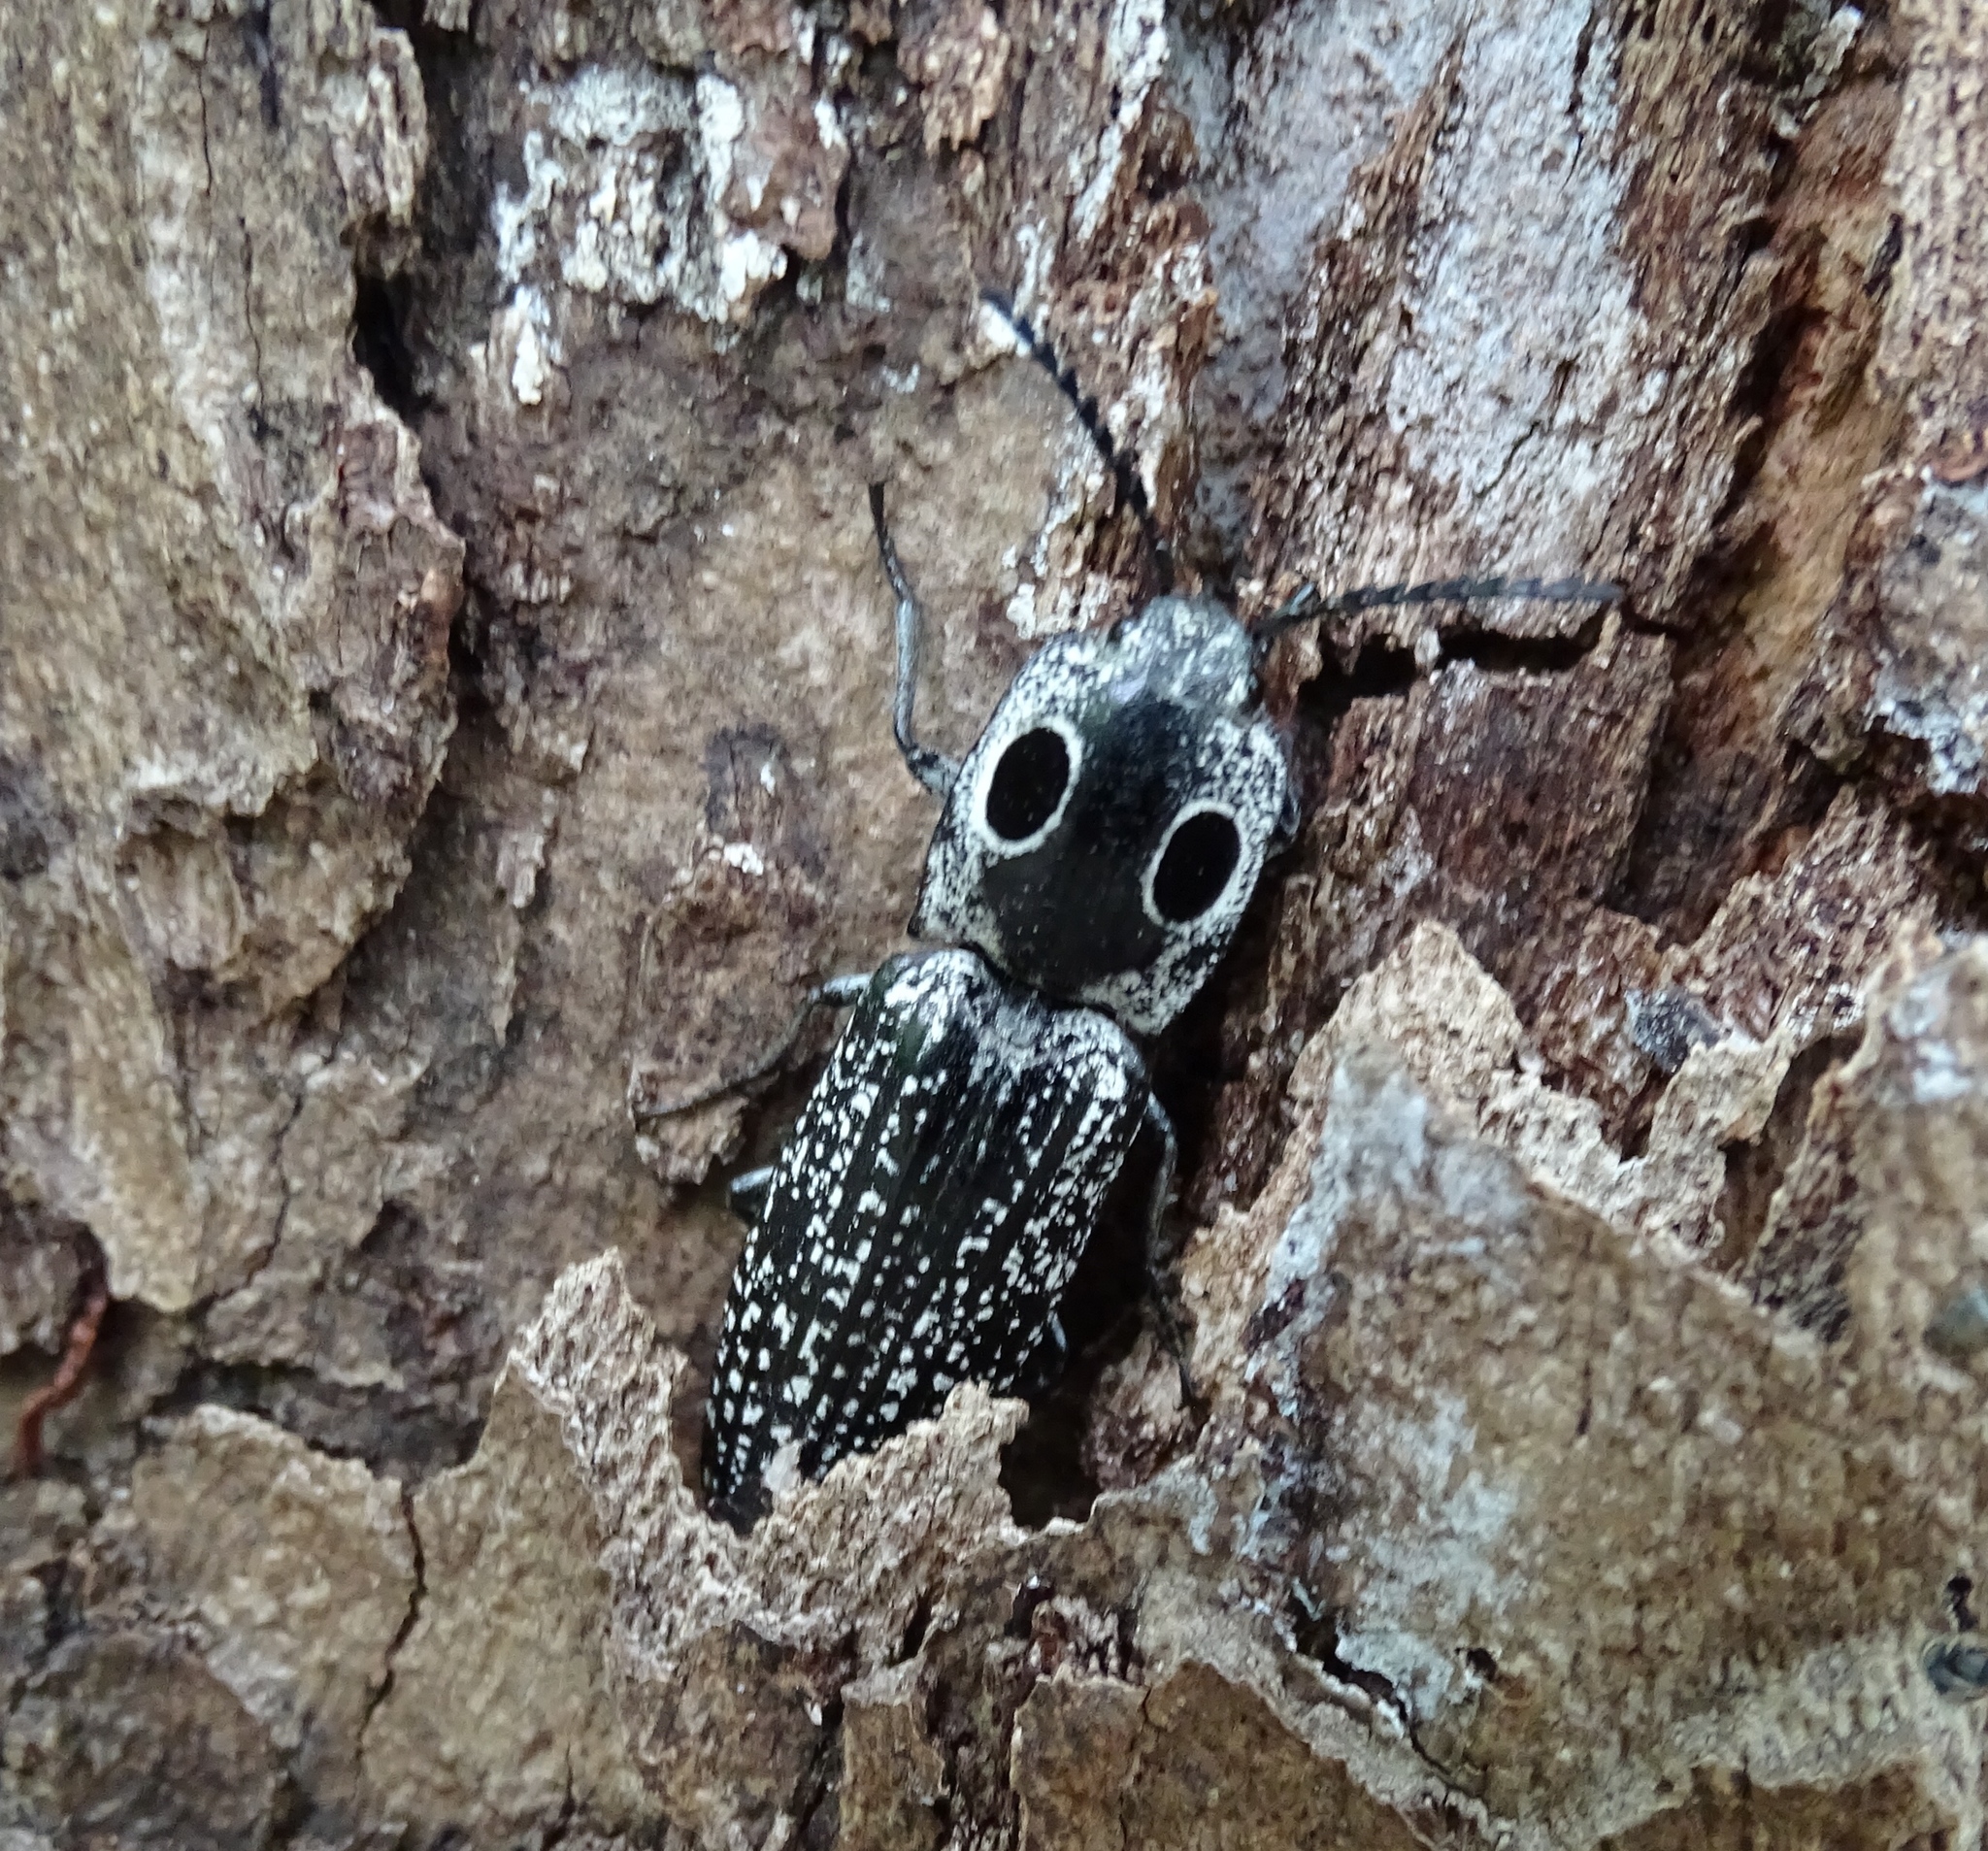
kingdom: Animalia
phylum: Arthropoda
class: Insecta
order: Coleoptera
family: Elateridae
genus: Alaus
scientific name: Alaus oculatus
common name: Eastern eyed click beetle
